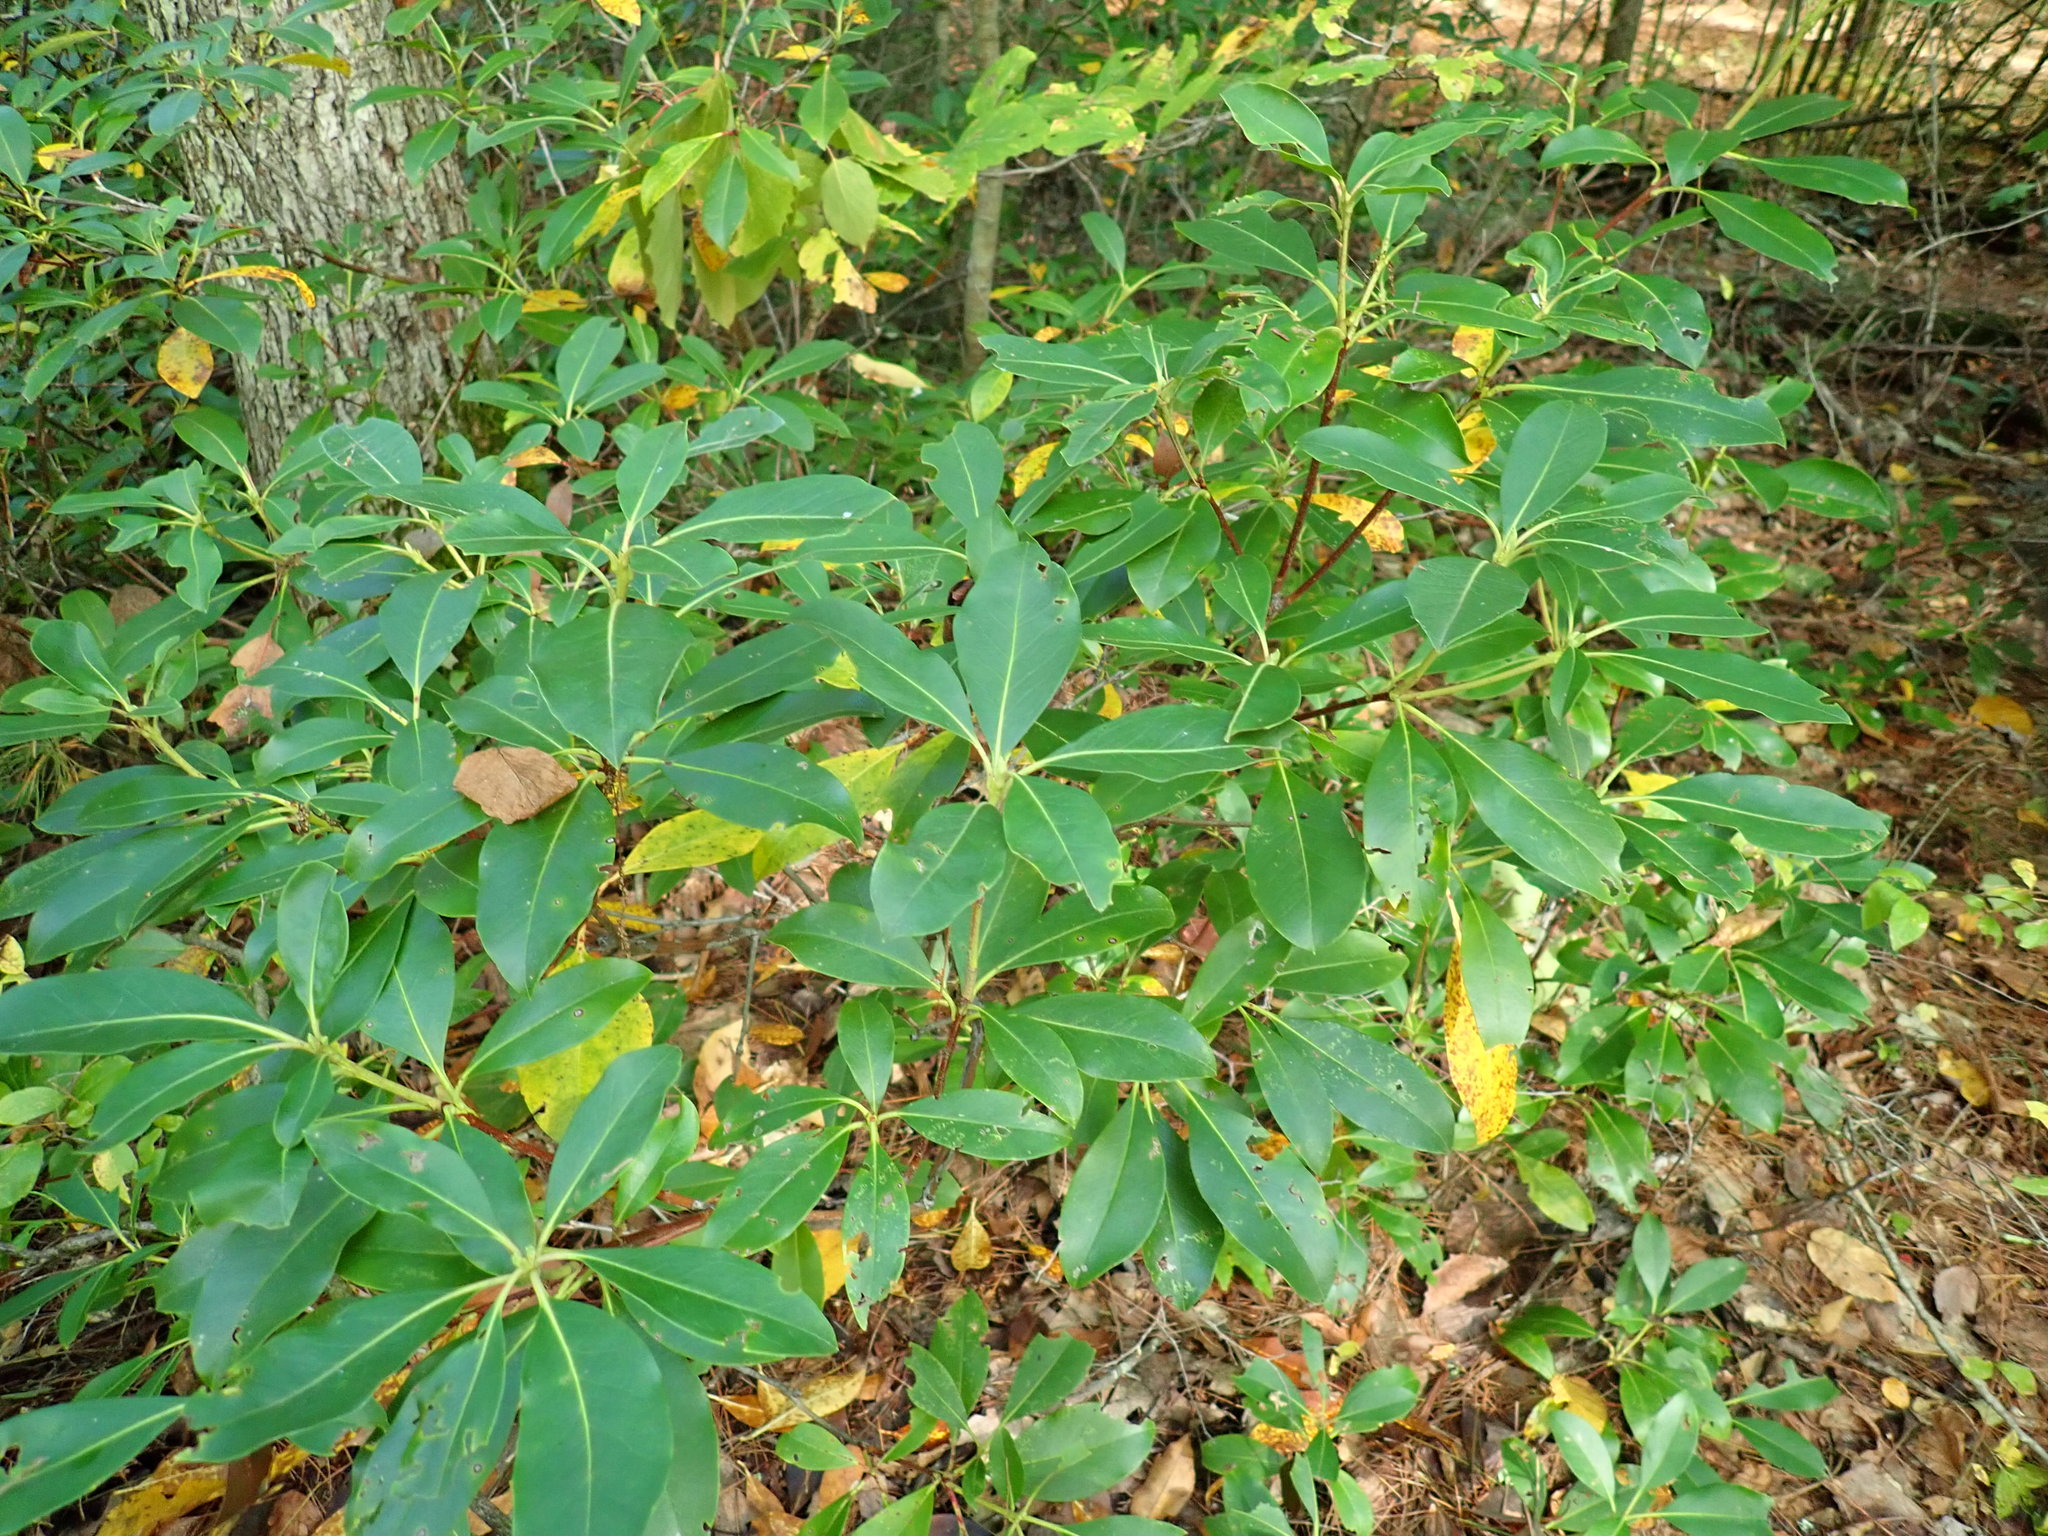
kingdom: Plantae
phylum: Tracheophyta
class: Magnoliopsida
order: Ericales
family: Ericaceae
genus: Kalmia
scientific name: Kalmia latifolia
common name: Mountain-laurel
